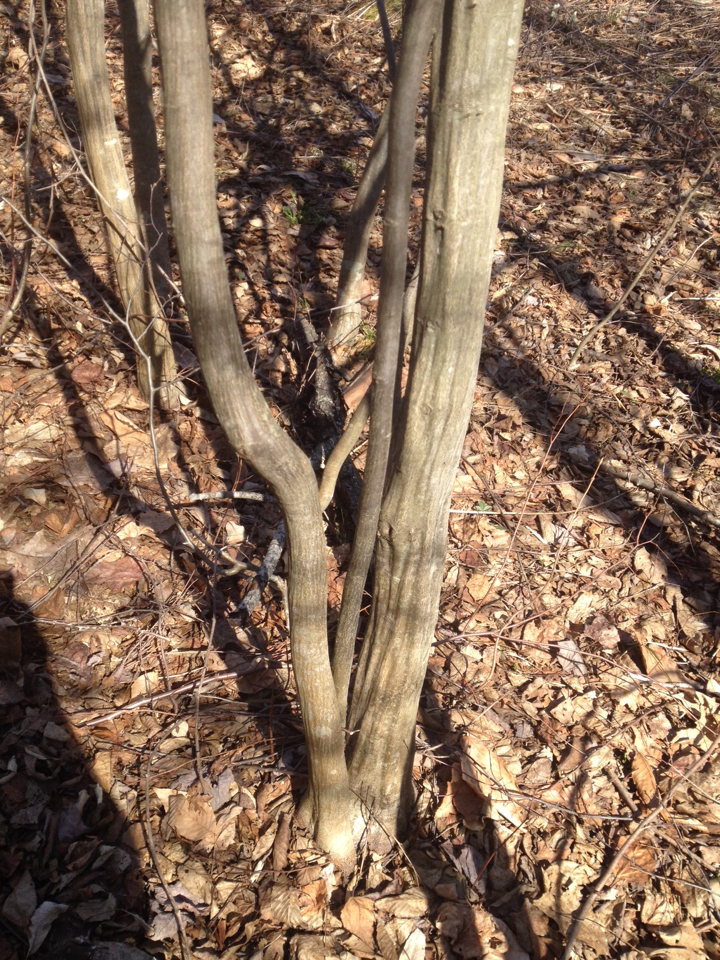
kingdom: Plantae
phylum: Tracheophyta
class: Magnoliopsida
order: Fagales
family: Betulaceae
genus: Carpinus
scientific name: Carpinus caroliniana
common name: American hornbeam
